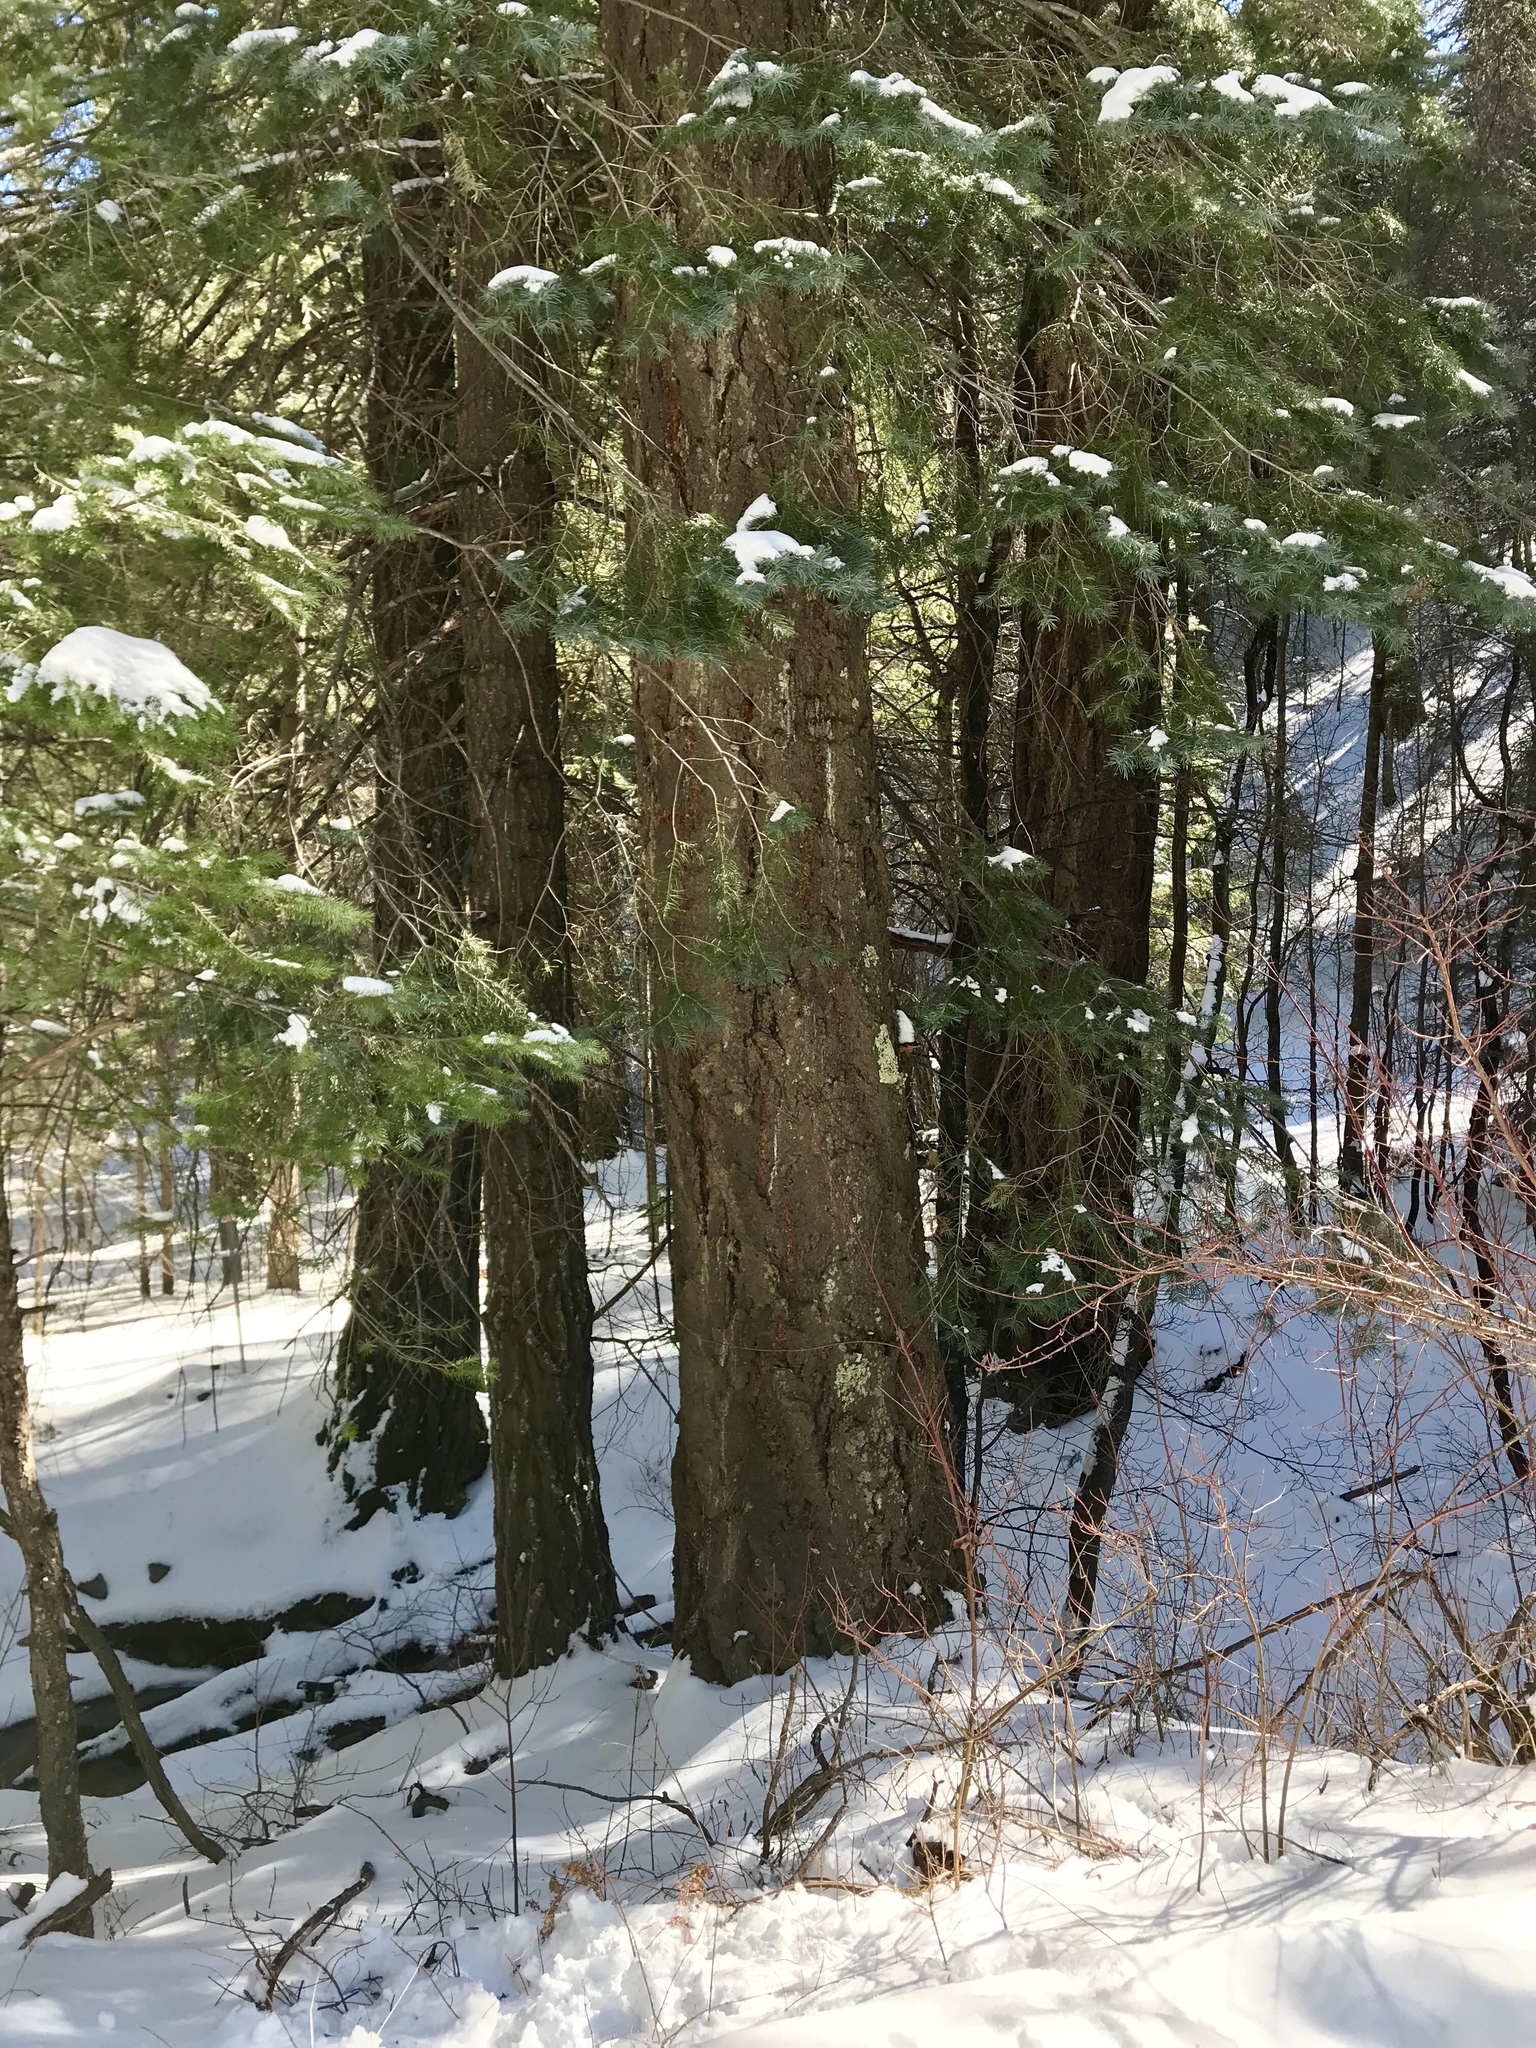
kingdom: Plantae
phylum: Tracheophyta
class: Pinopsida
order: Pinales
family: Pinaceae
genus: Pseudotsuga
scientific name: Pseudotsuga menziesii
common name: Douglas fir
